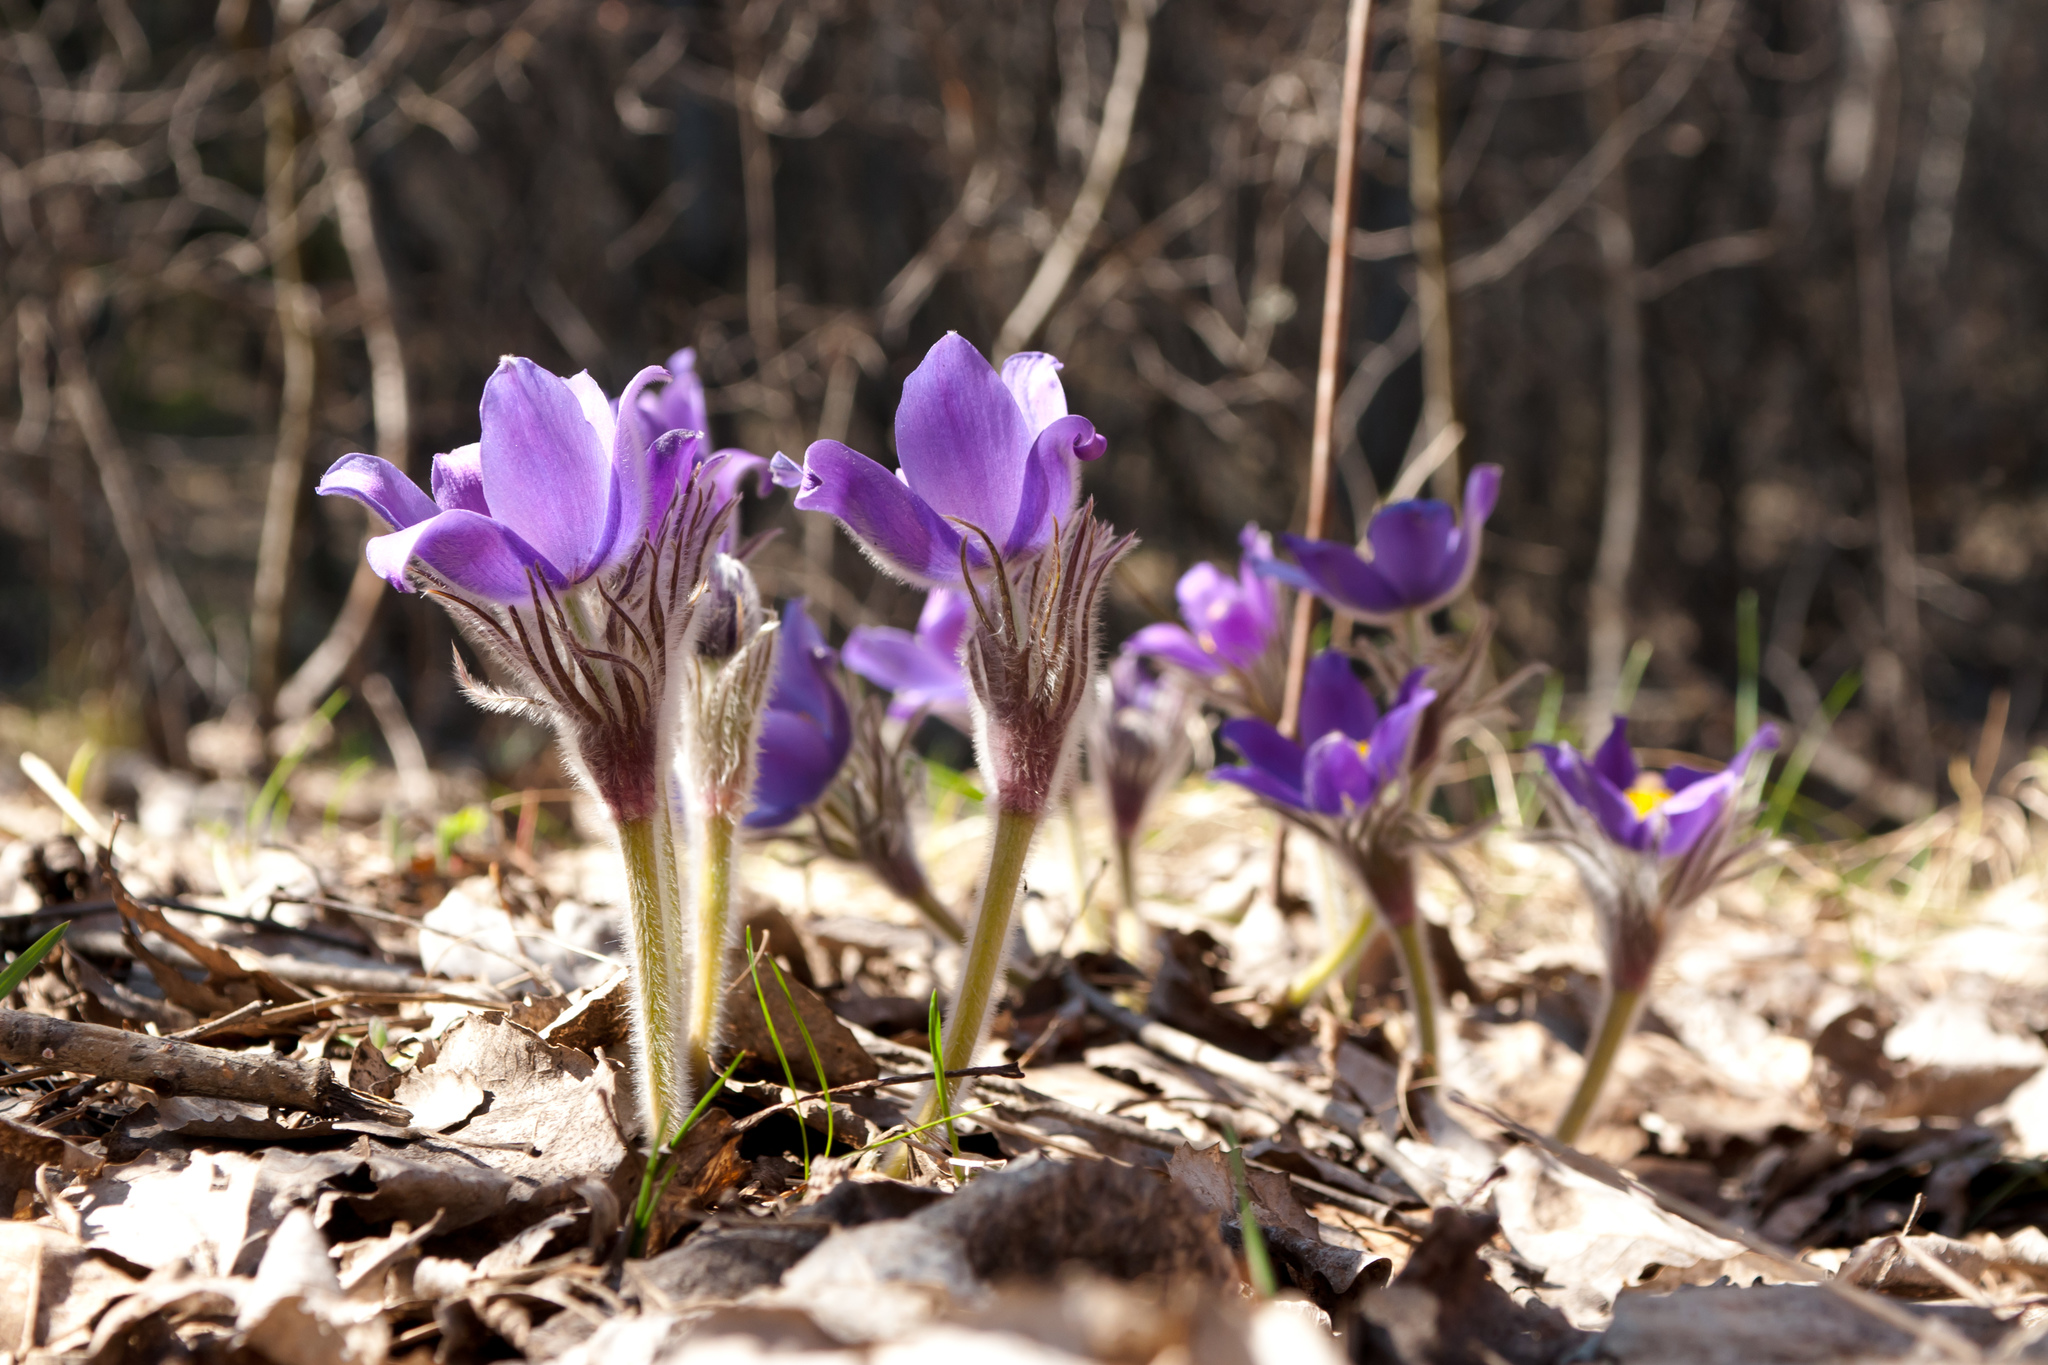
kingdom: Plantae
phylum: Tracheophyta
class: Magnoliopsida
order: Ranunculales
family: Ranunculaceae
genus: Pulsatilla
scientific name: Pulsatilla patens
